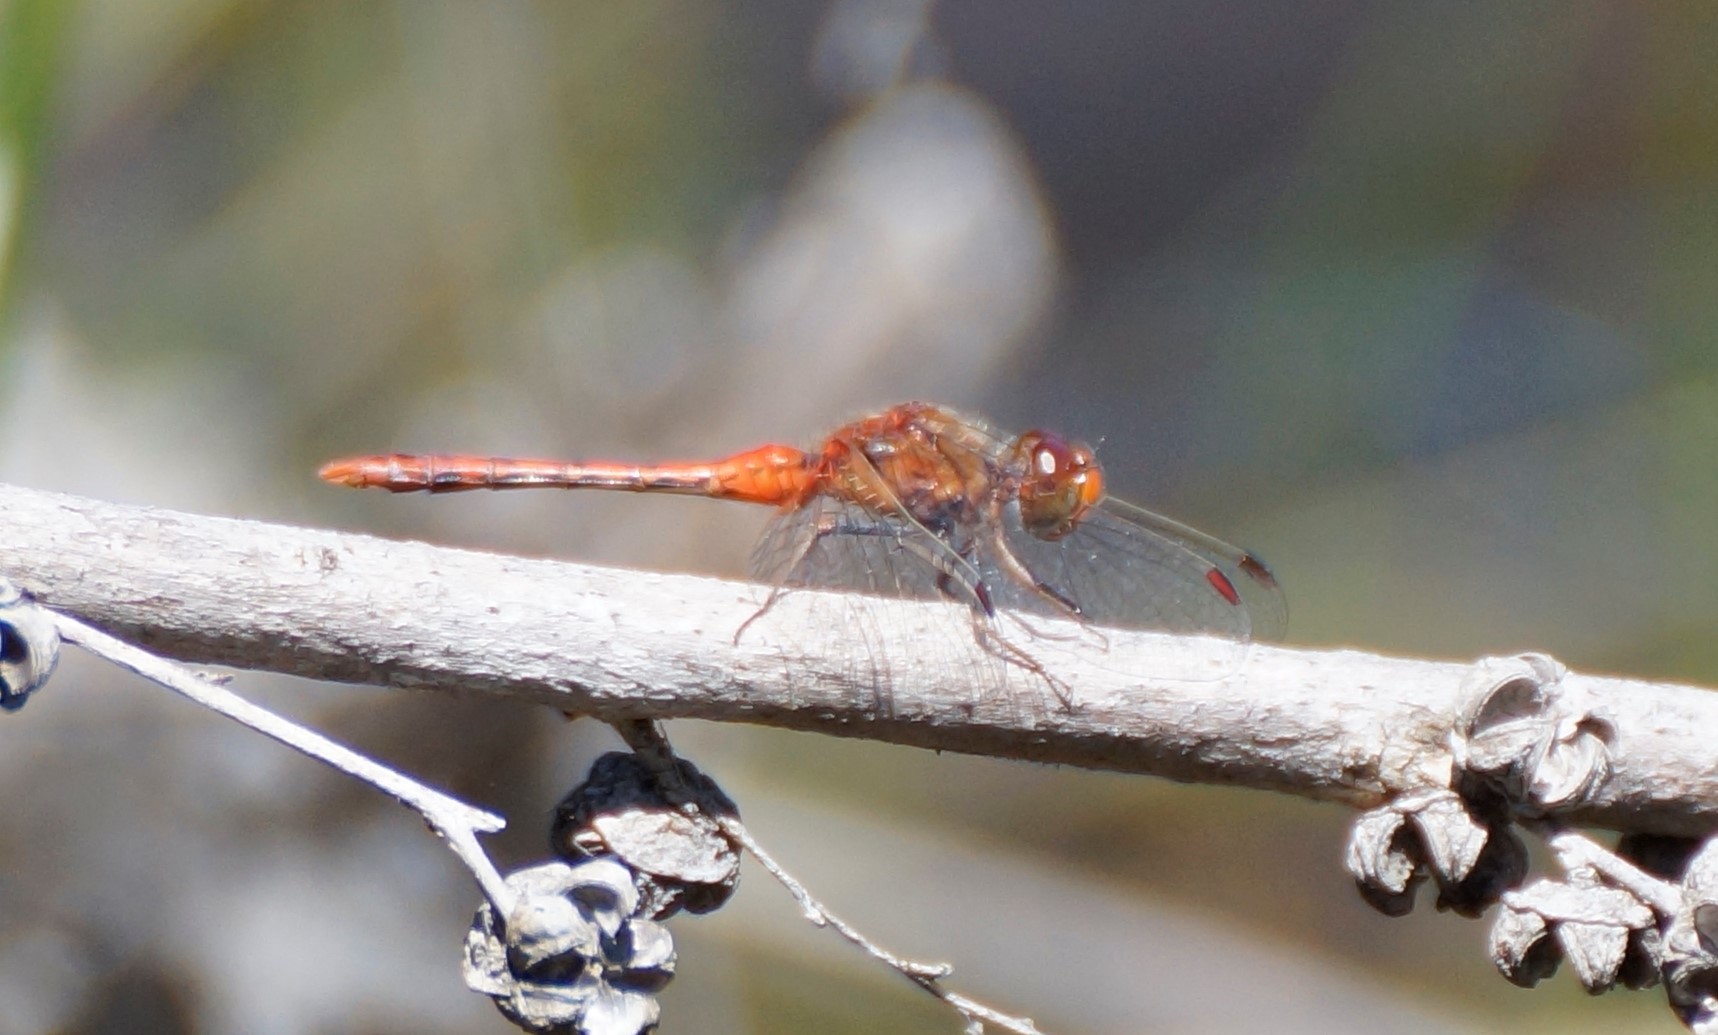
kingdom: Animalia
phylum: Arthropoda
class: Insecta
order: Odonata
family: Libellulidae
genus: Diplacodes
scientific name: Diplacodes bipunctata
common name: Red percher dragonfly
